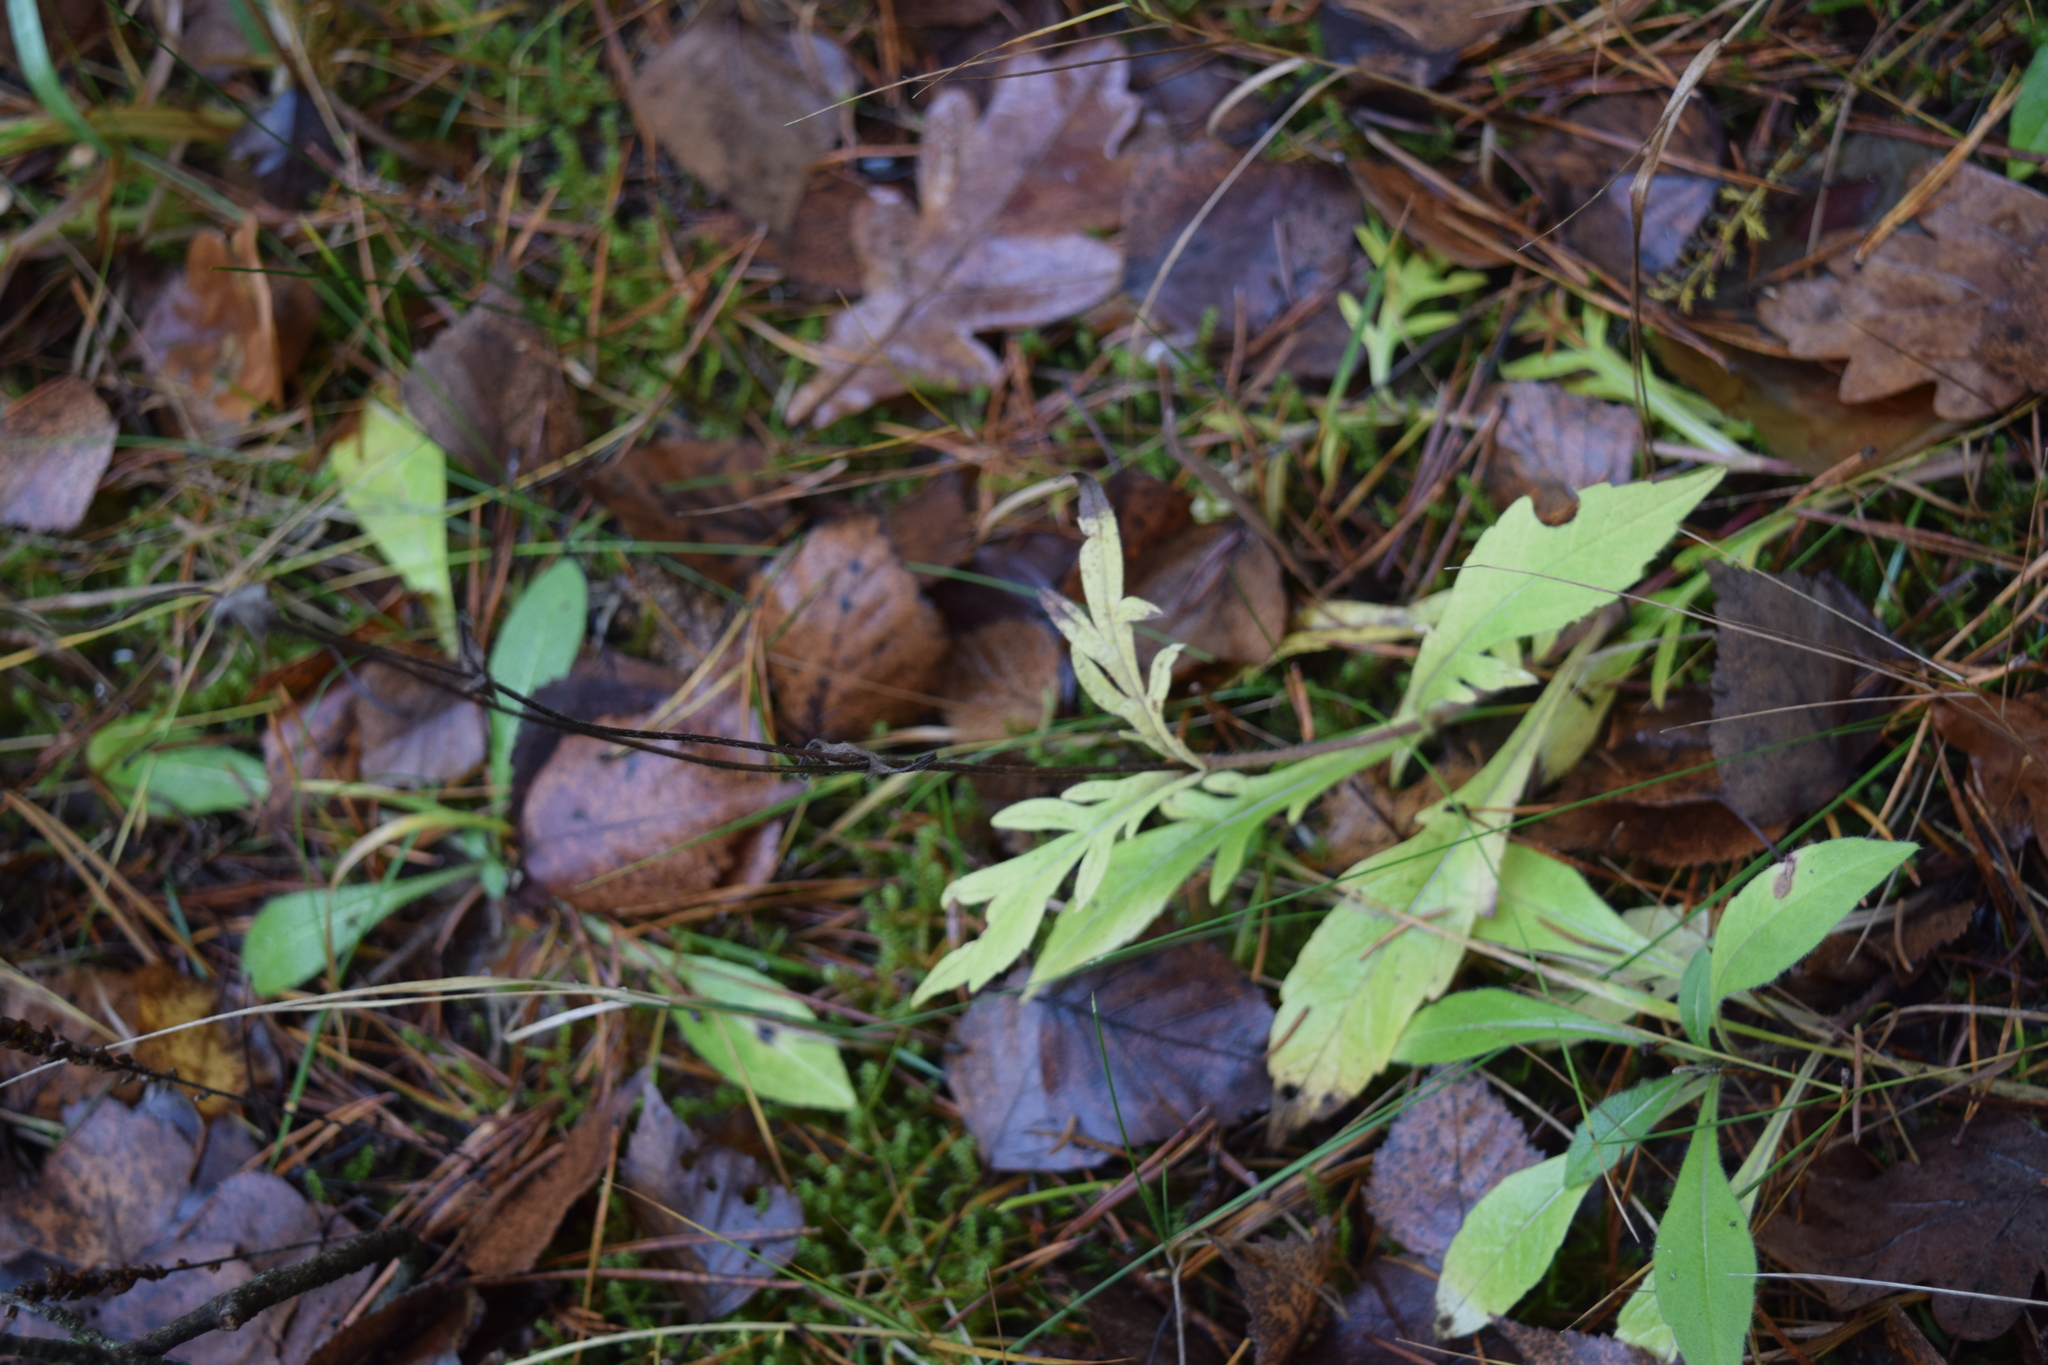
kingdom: Plantae
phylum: Tracheophyta
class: Magnoliopsida
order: Dipsacales
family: Caprifoliaceae
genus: Knautia
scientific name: Knautia arvensis
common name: Field scabiosa
